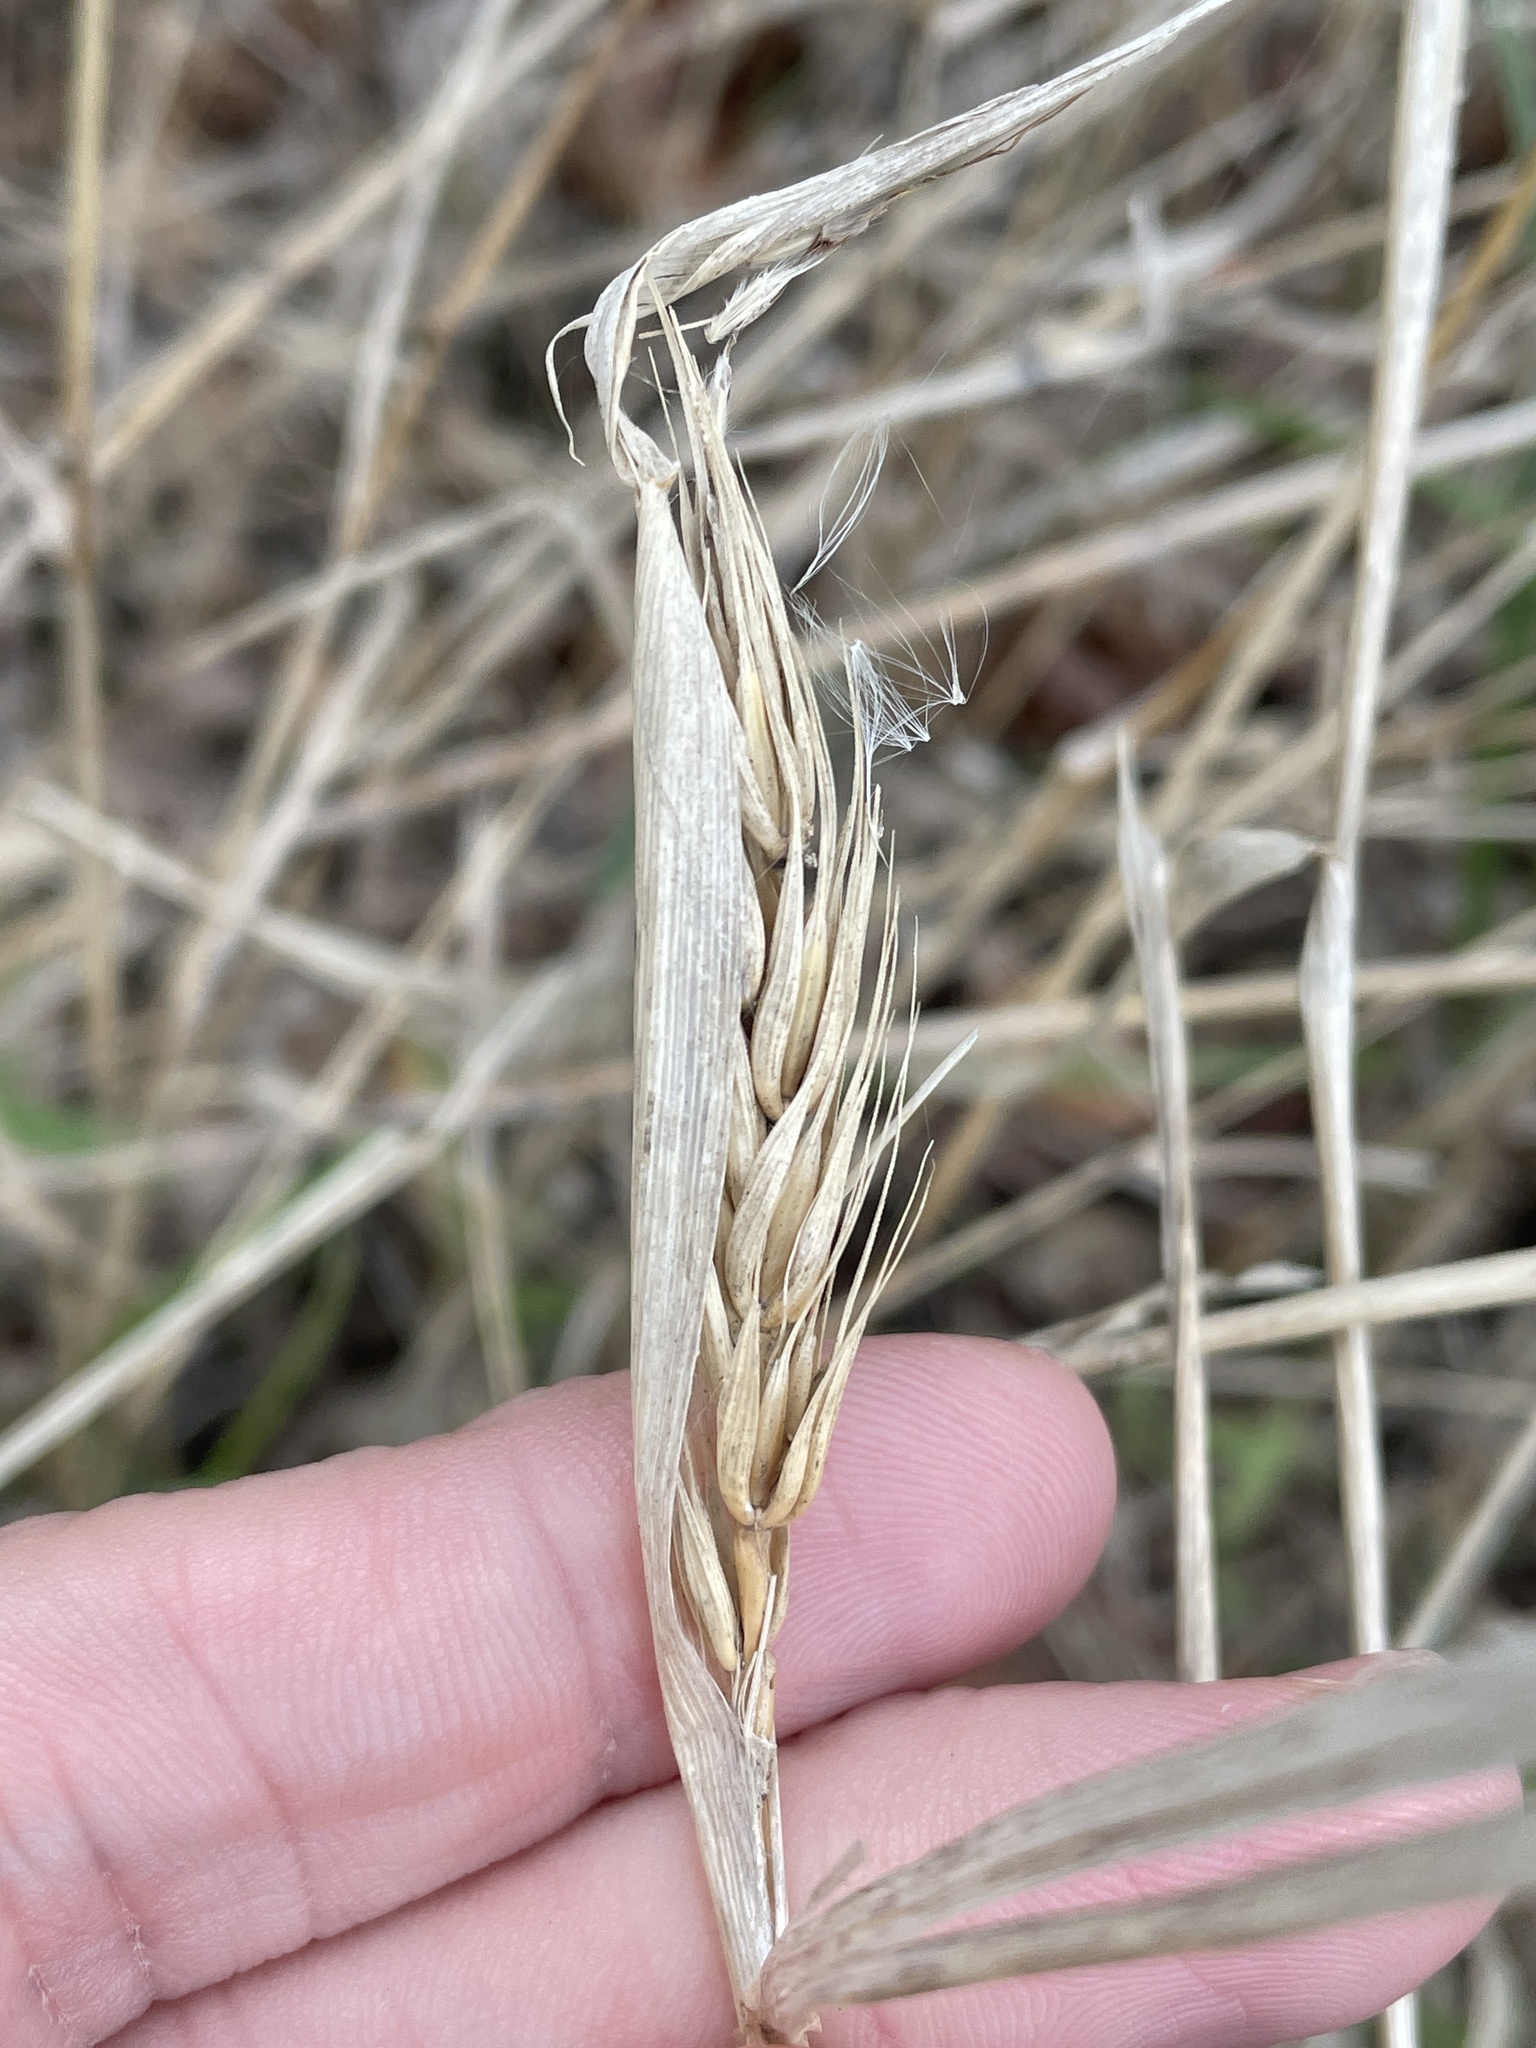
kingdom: Plantae
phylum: Tracheophyta
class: Liliopsida
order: Poales
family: Poaceae
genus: Elymus
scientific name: Elymus virginicus
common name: Common eastern wildrye
